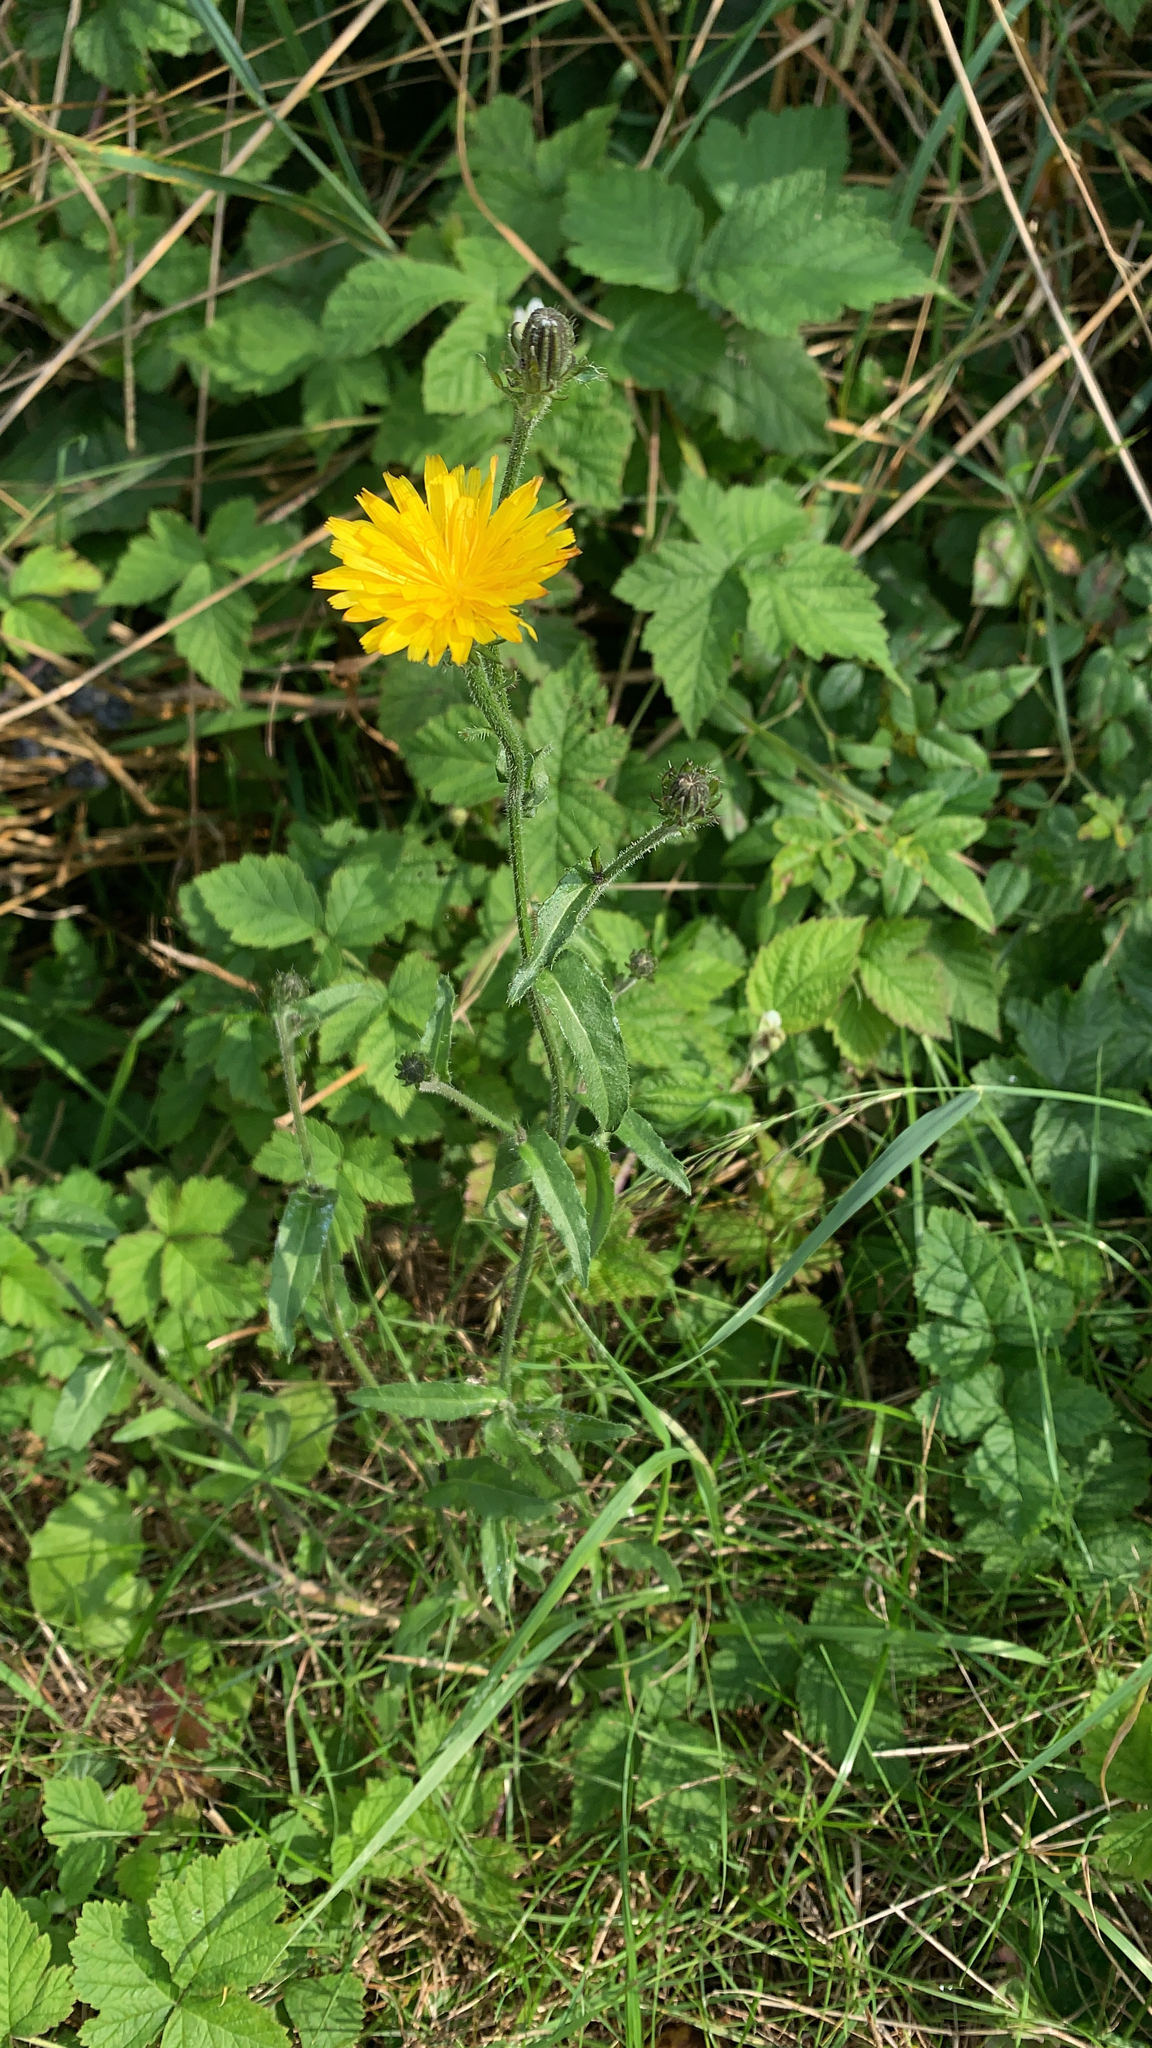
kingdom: Plantae
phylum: Tracheophyta
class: Magnoliopsida
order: Asterales
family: Asteraceae
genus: Picris
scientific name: Picris hieracioides
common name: Hawkweed oxtongue
